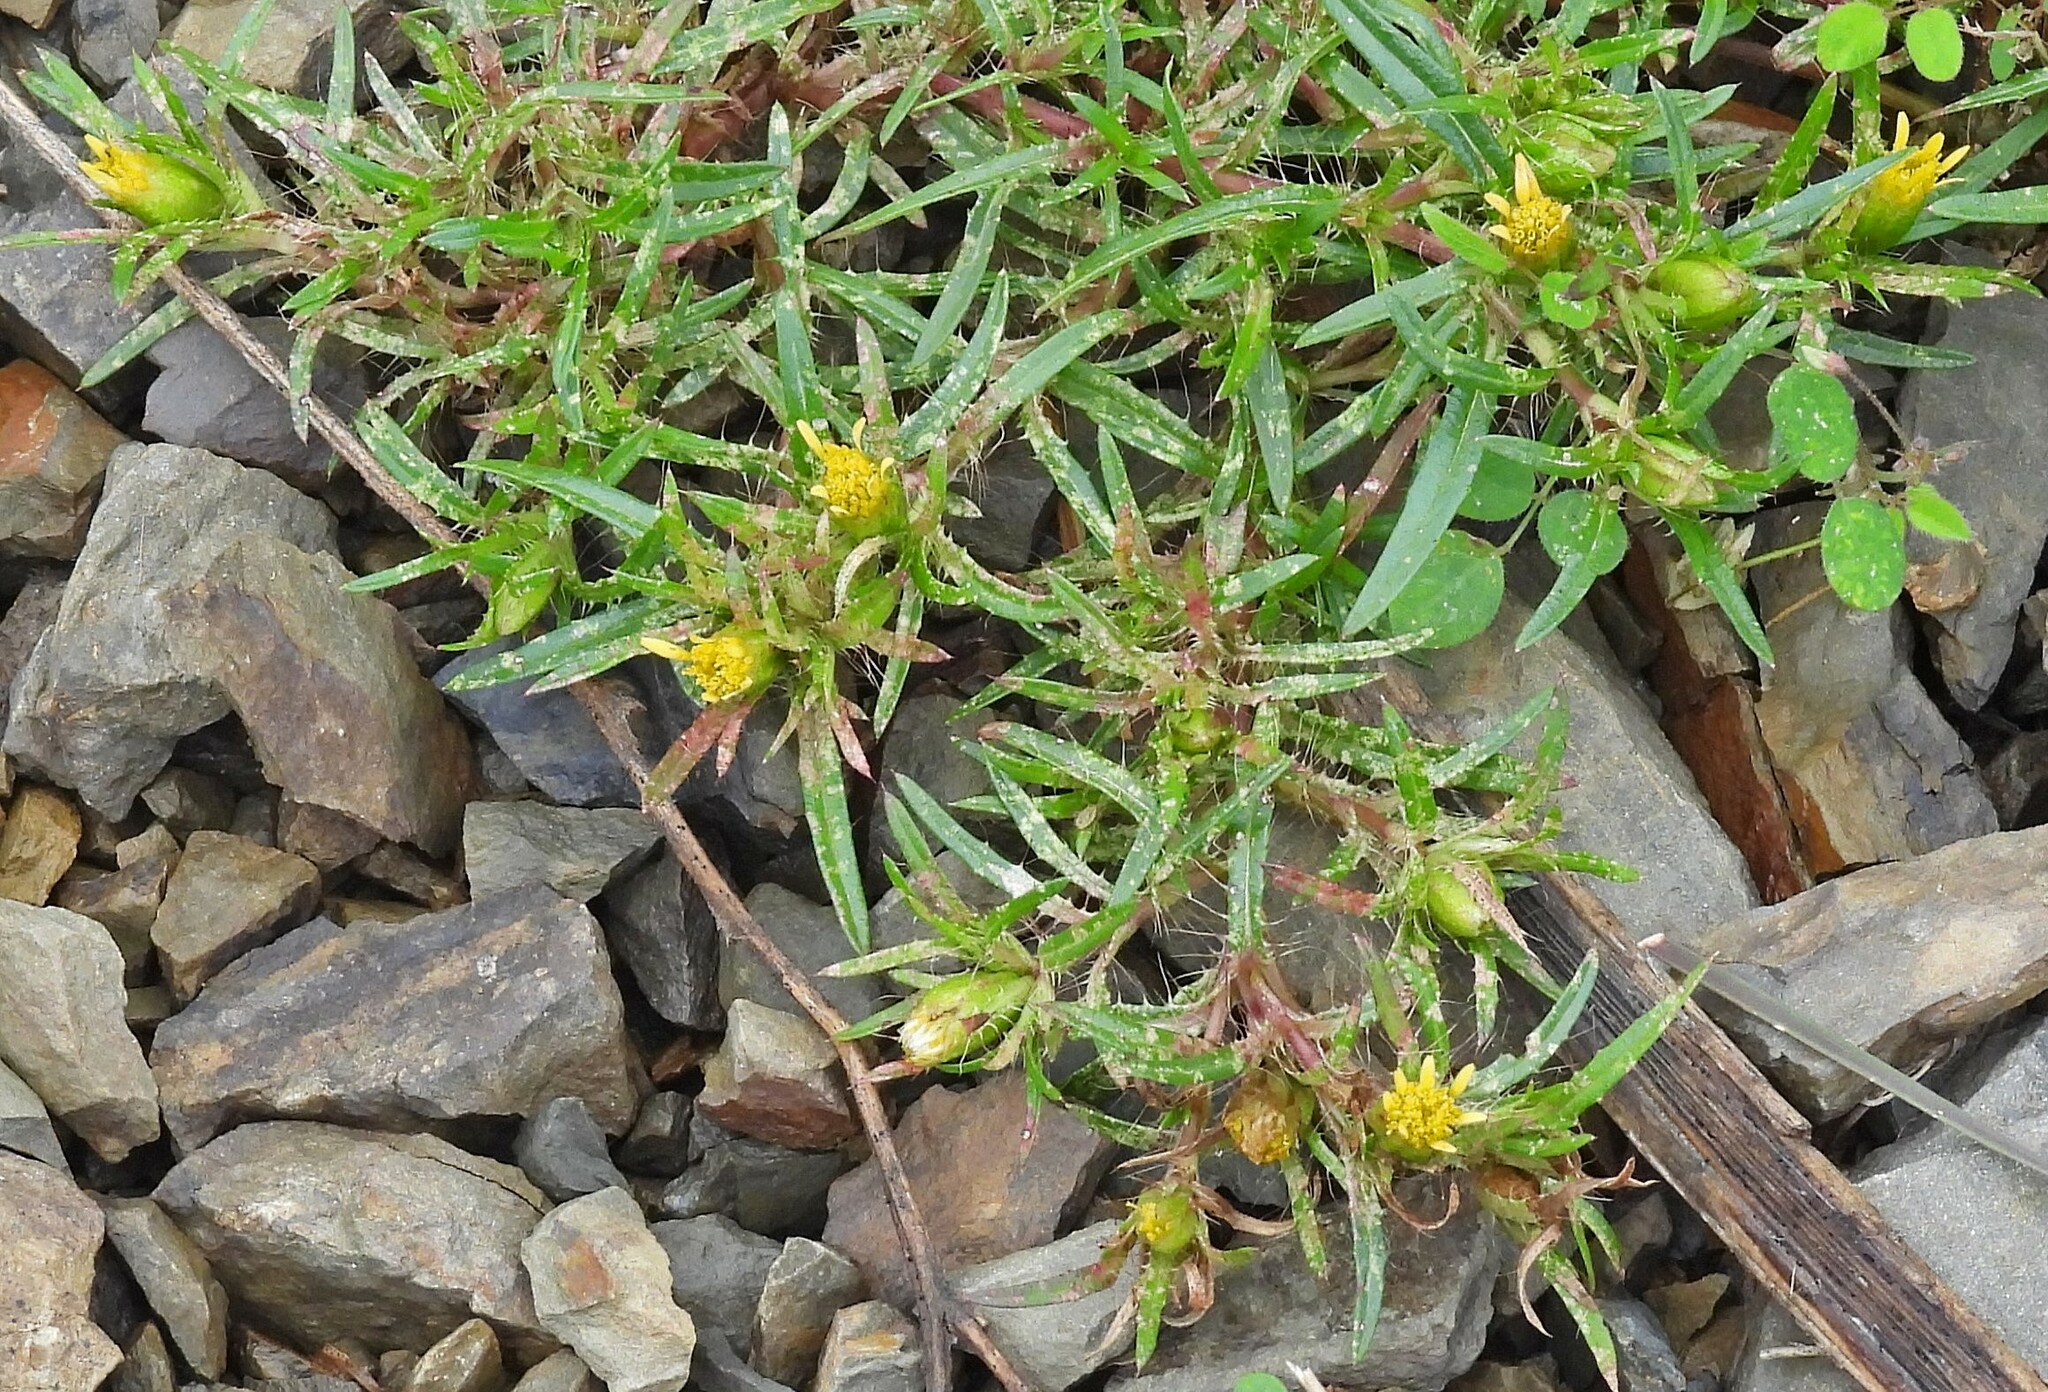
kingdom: Plantae
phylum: Tracheophyta
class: Magnoliopsida
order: Asterales
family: Asteraceae
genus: Pectis
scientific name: Pectis sessiliflora
